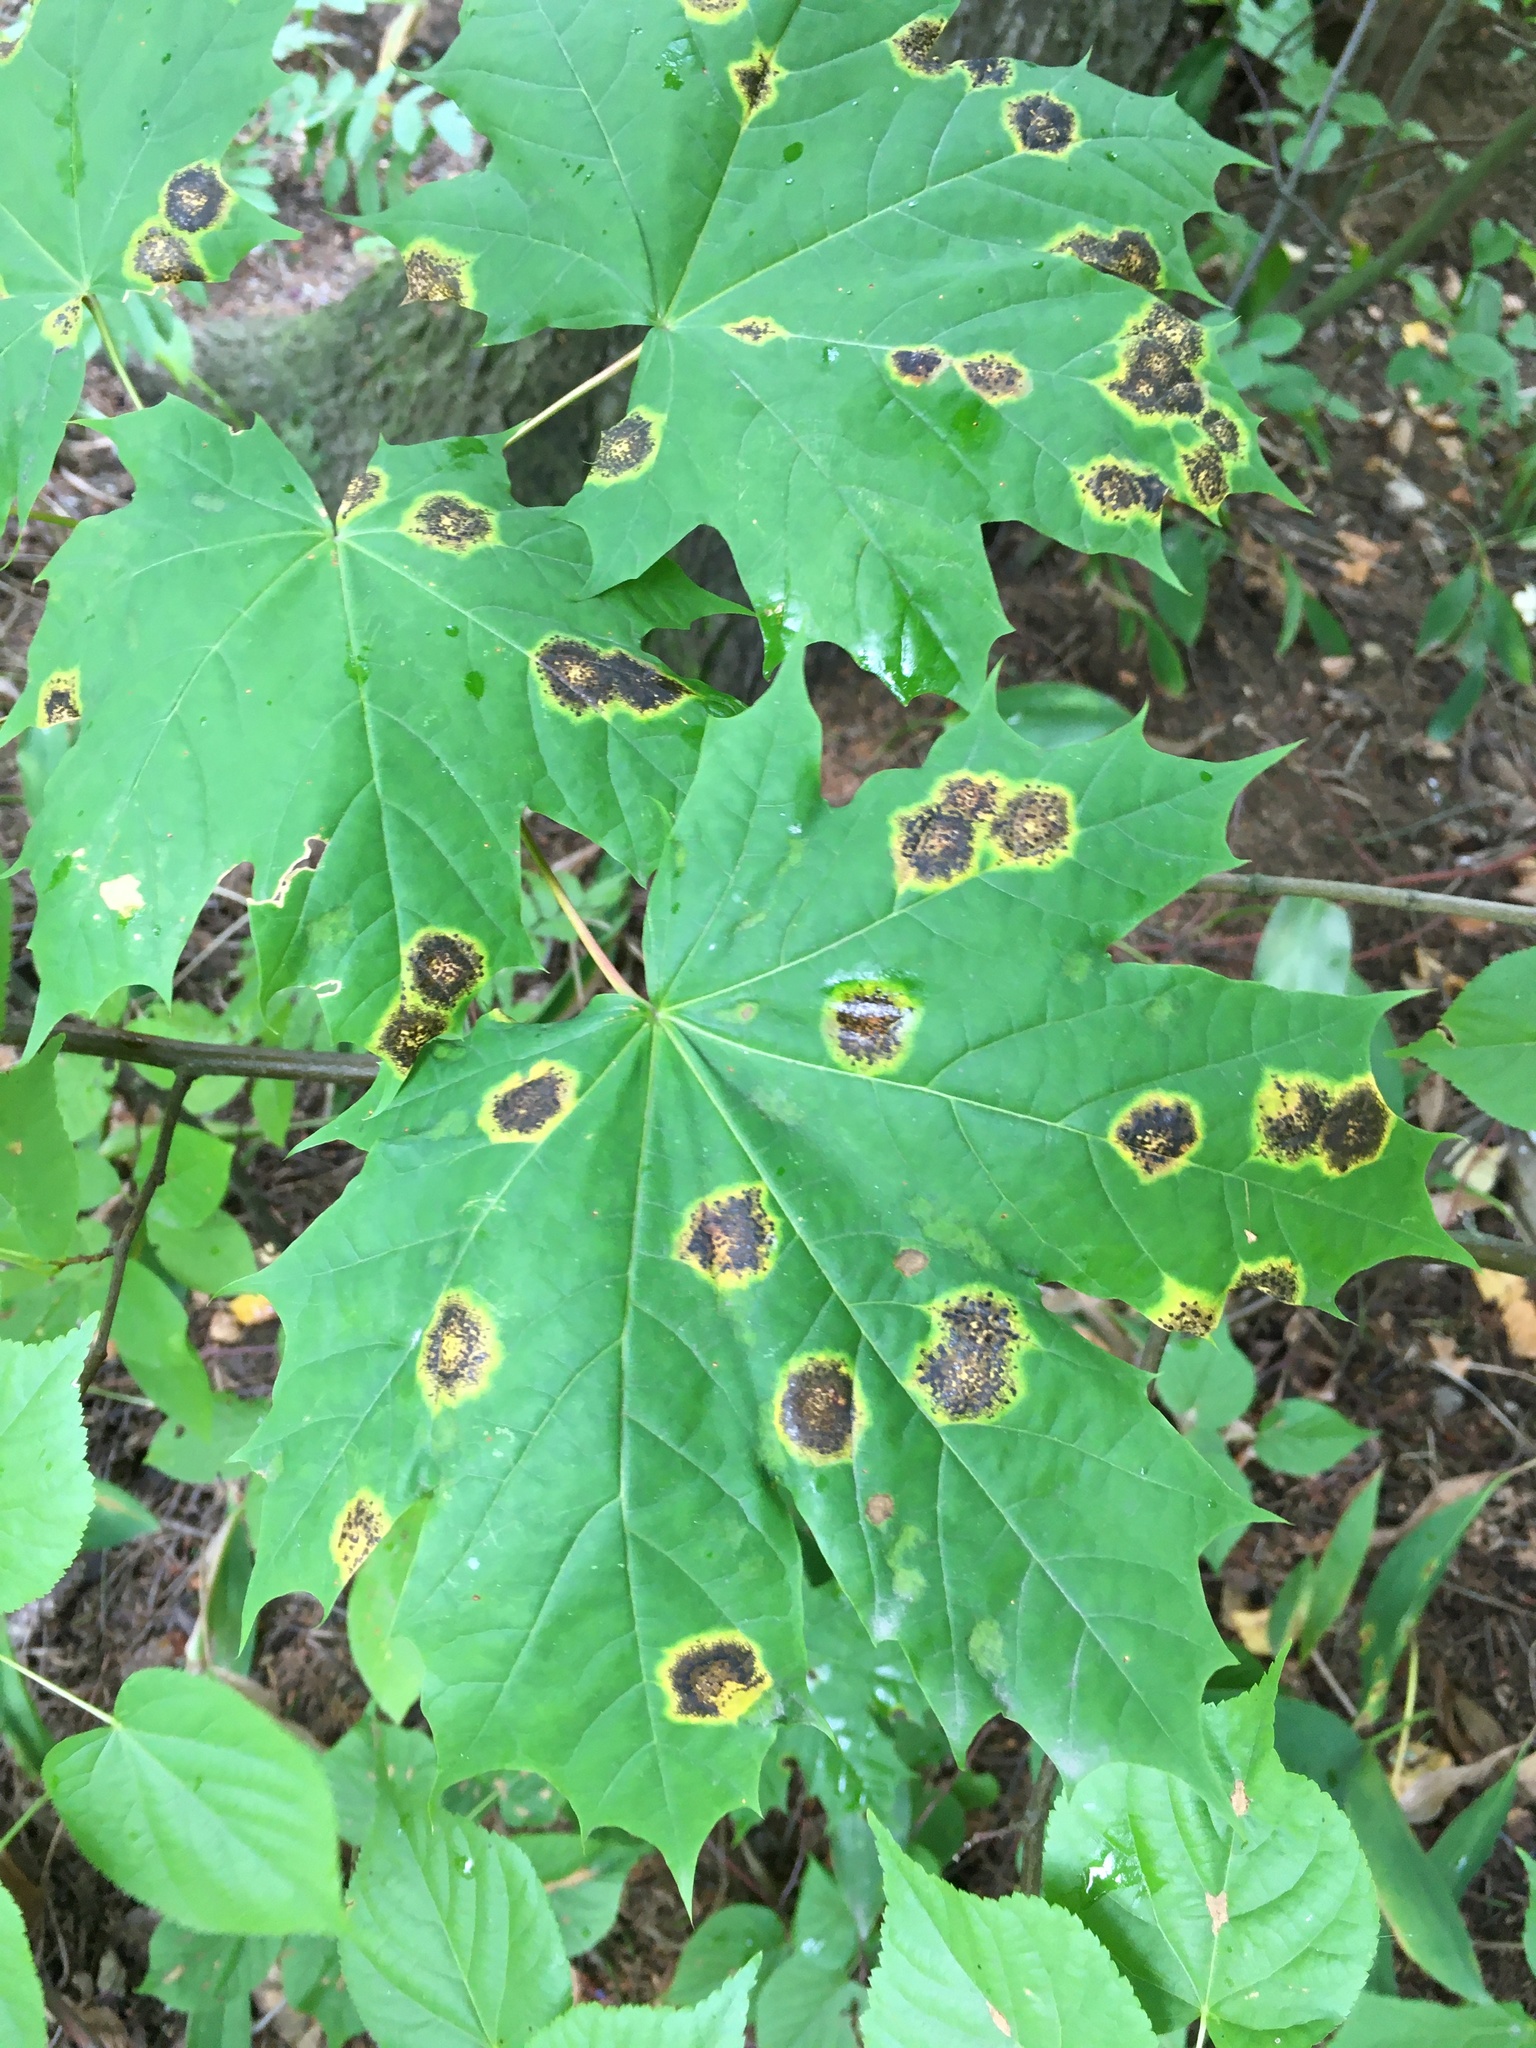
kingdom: Fungi
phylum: Ascomycota
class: Leotiomycetes
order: Rhytismatales
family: Rhytismataceae
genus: Rhytisma
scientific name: Rhytisma acerinum
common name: European tar spot
